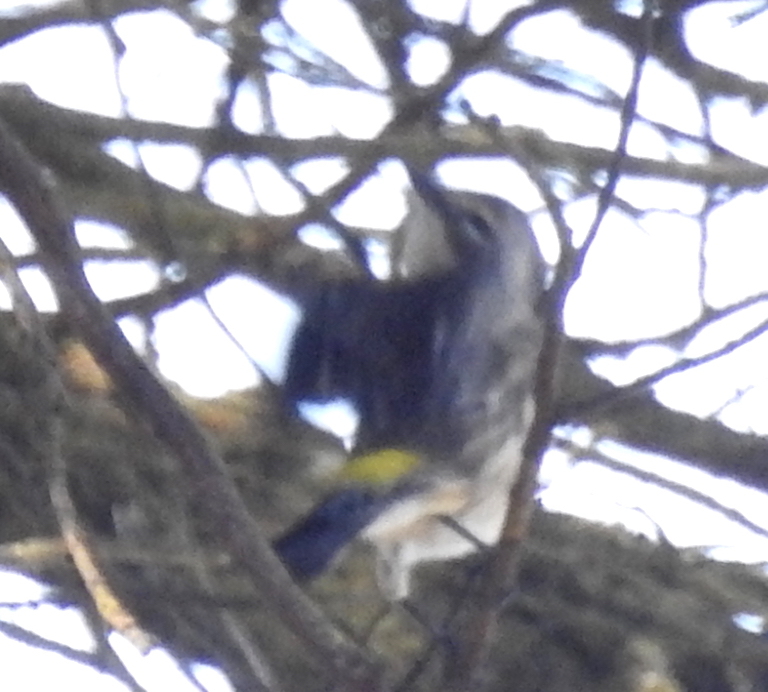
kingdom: Animalia
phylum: Chordata
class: Aves
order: Passeriformes
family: Parulidae
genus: Setophaga
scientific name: Setophaga coronata
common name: Myrtle warbler
